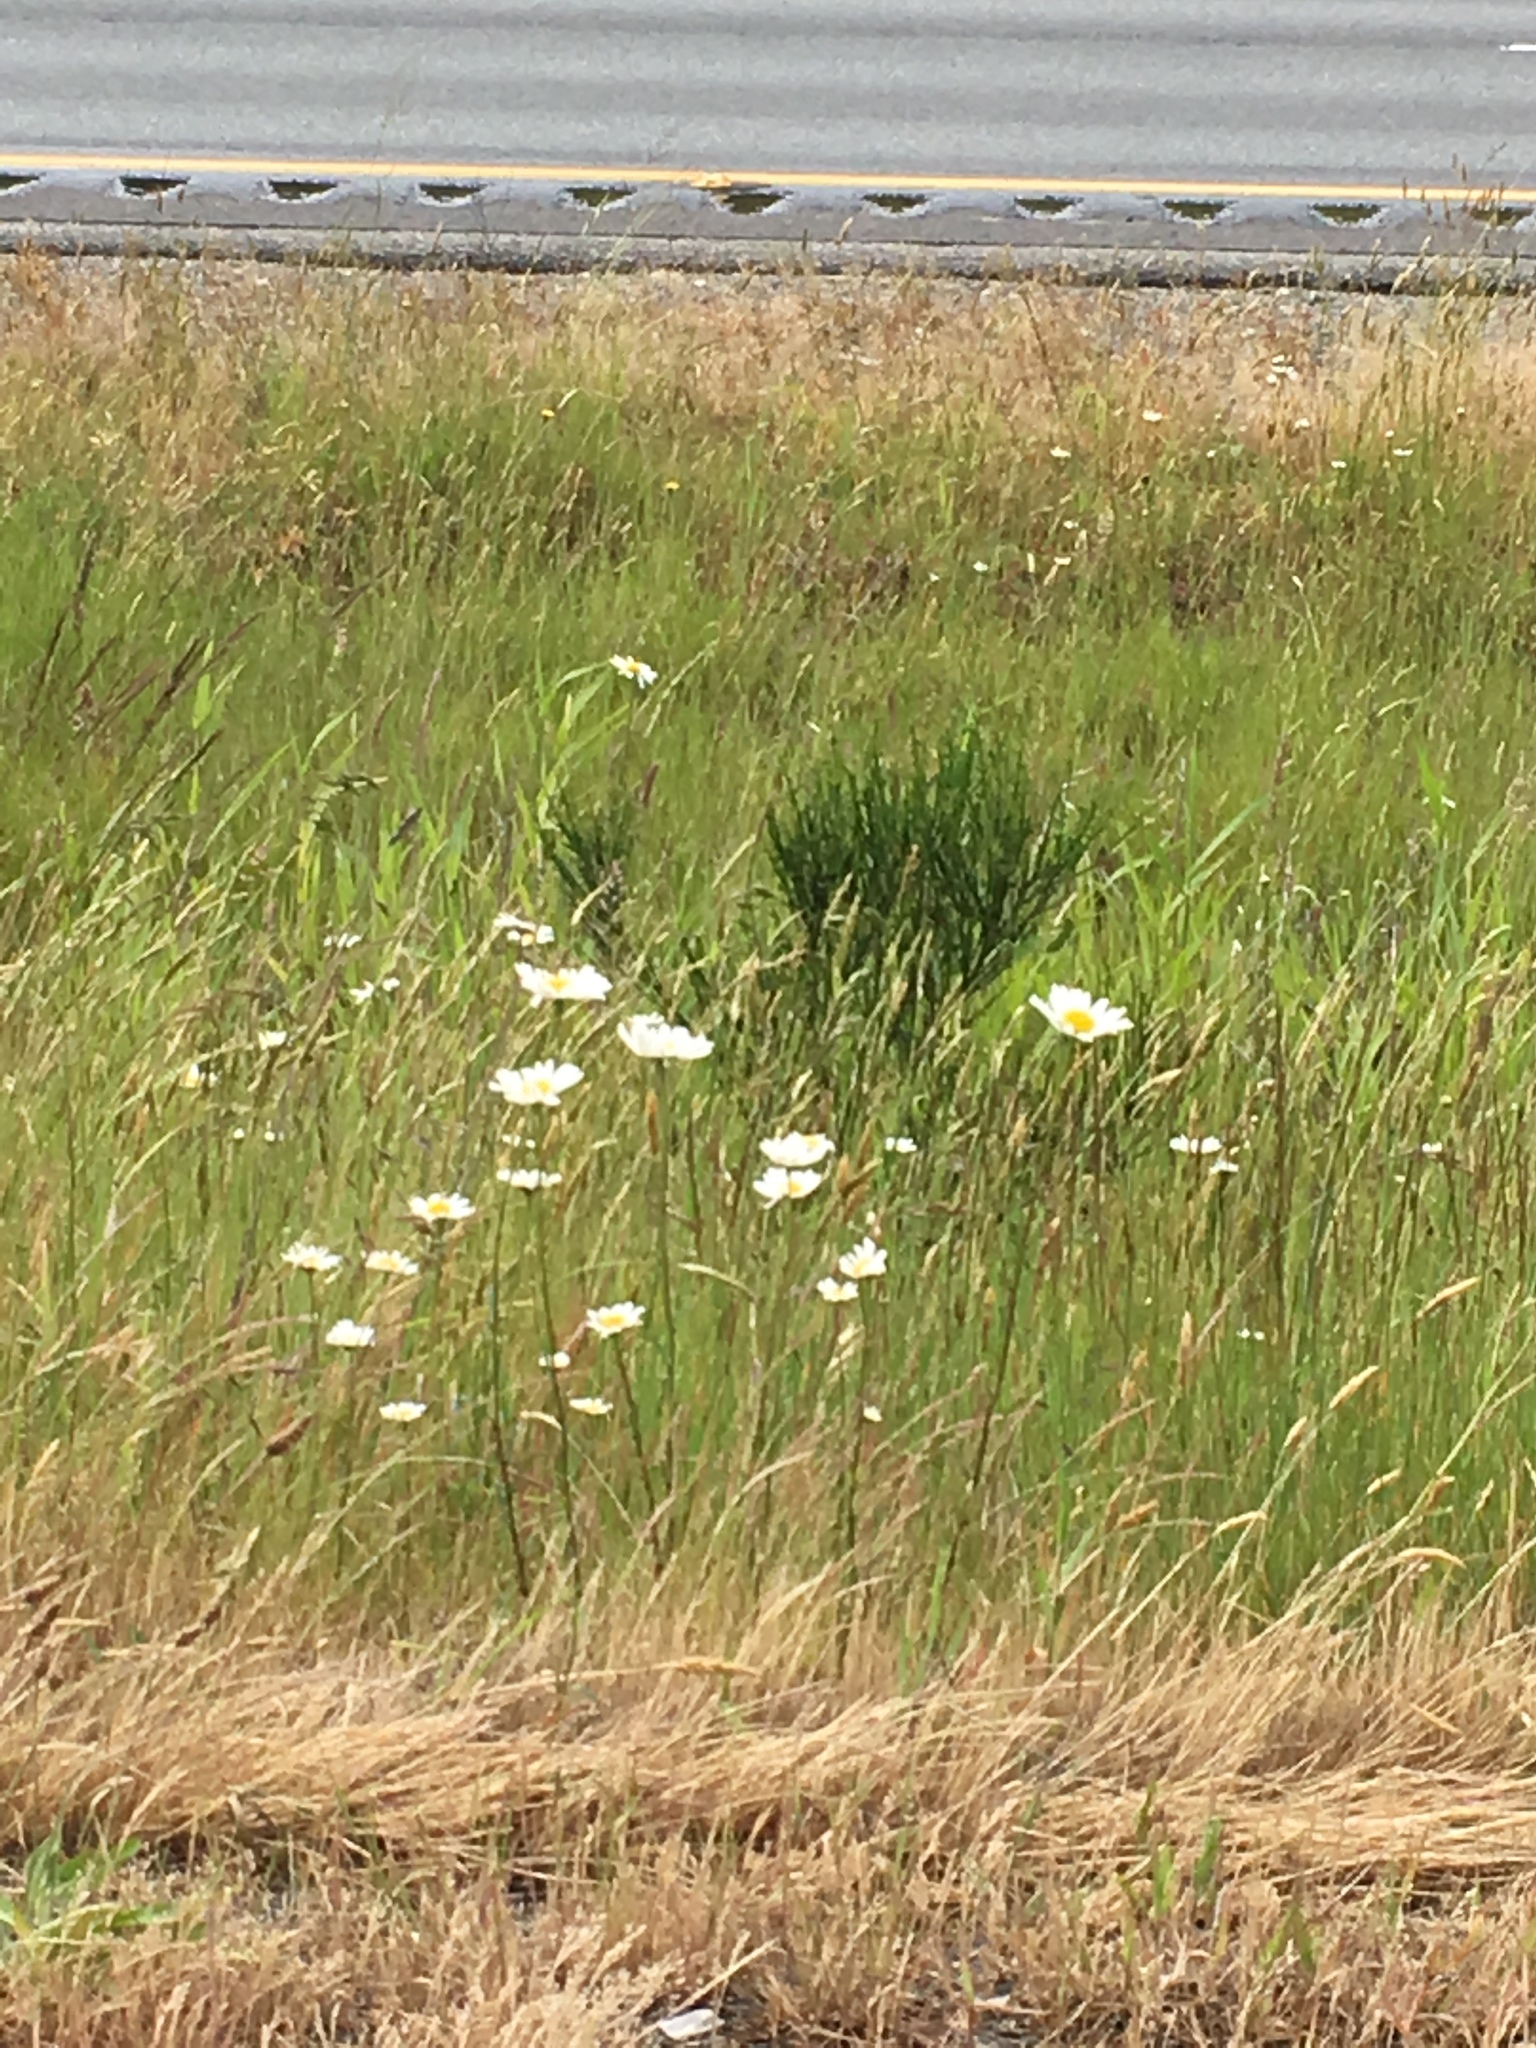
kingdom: Plantae
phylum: Tracheophyta
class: Magnoliopsida
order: Asterales
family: Asteraceae
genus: Leucanthemum
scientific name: Leucanthemum vulgare
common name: Oxeye daisy
